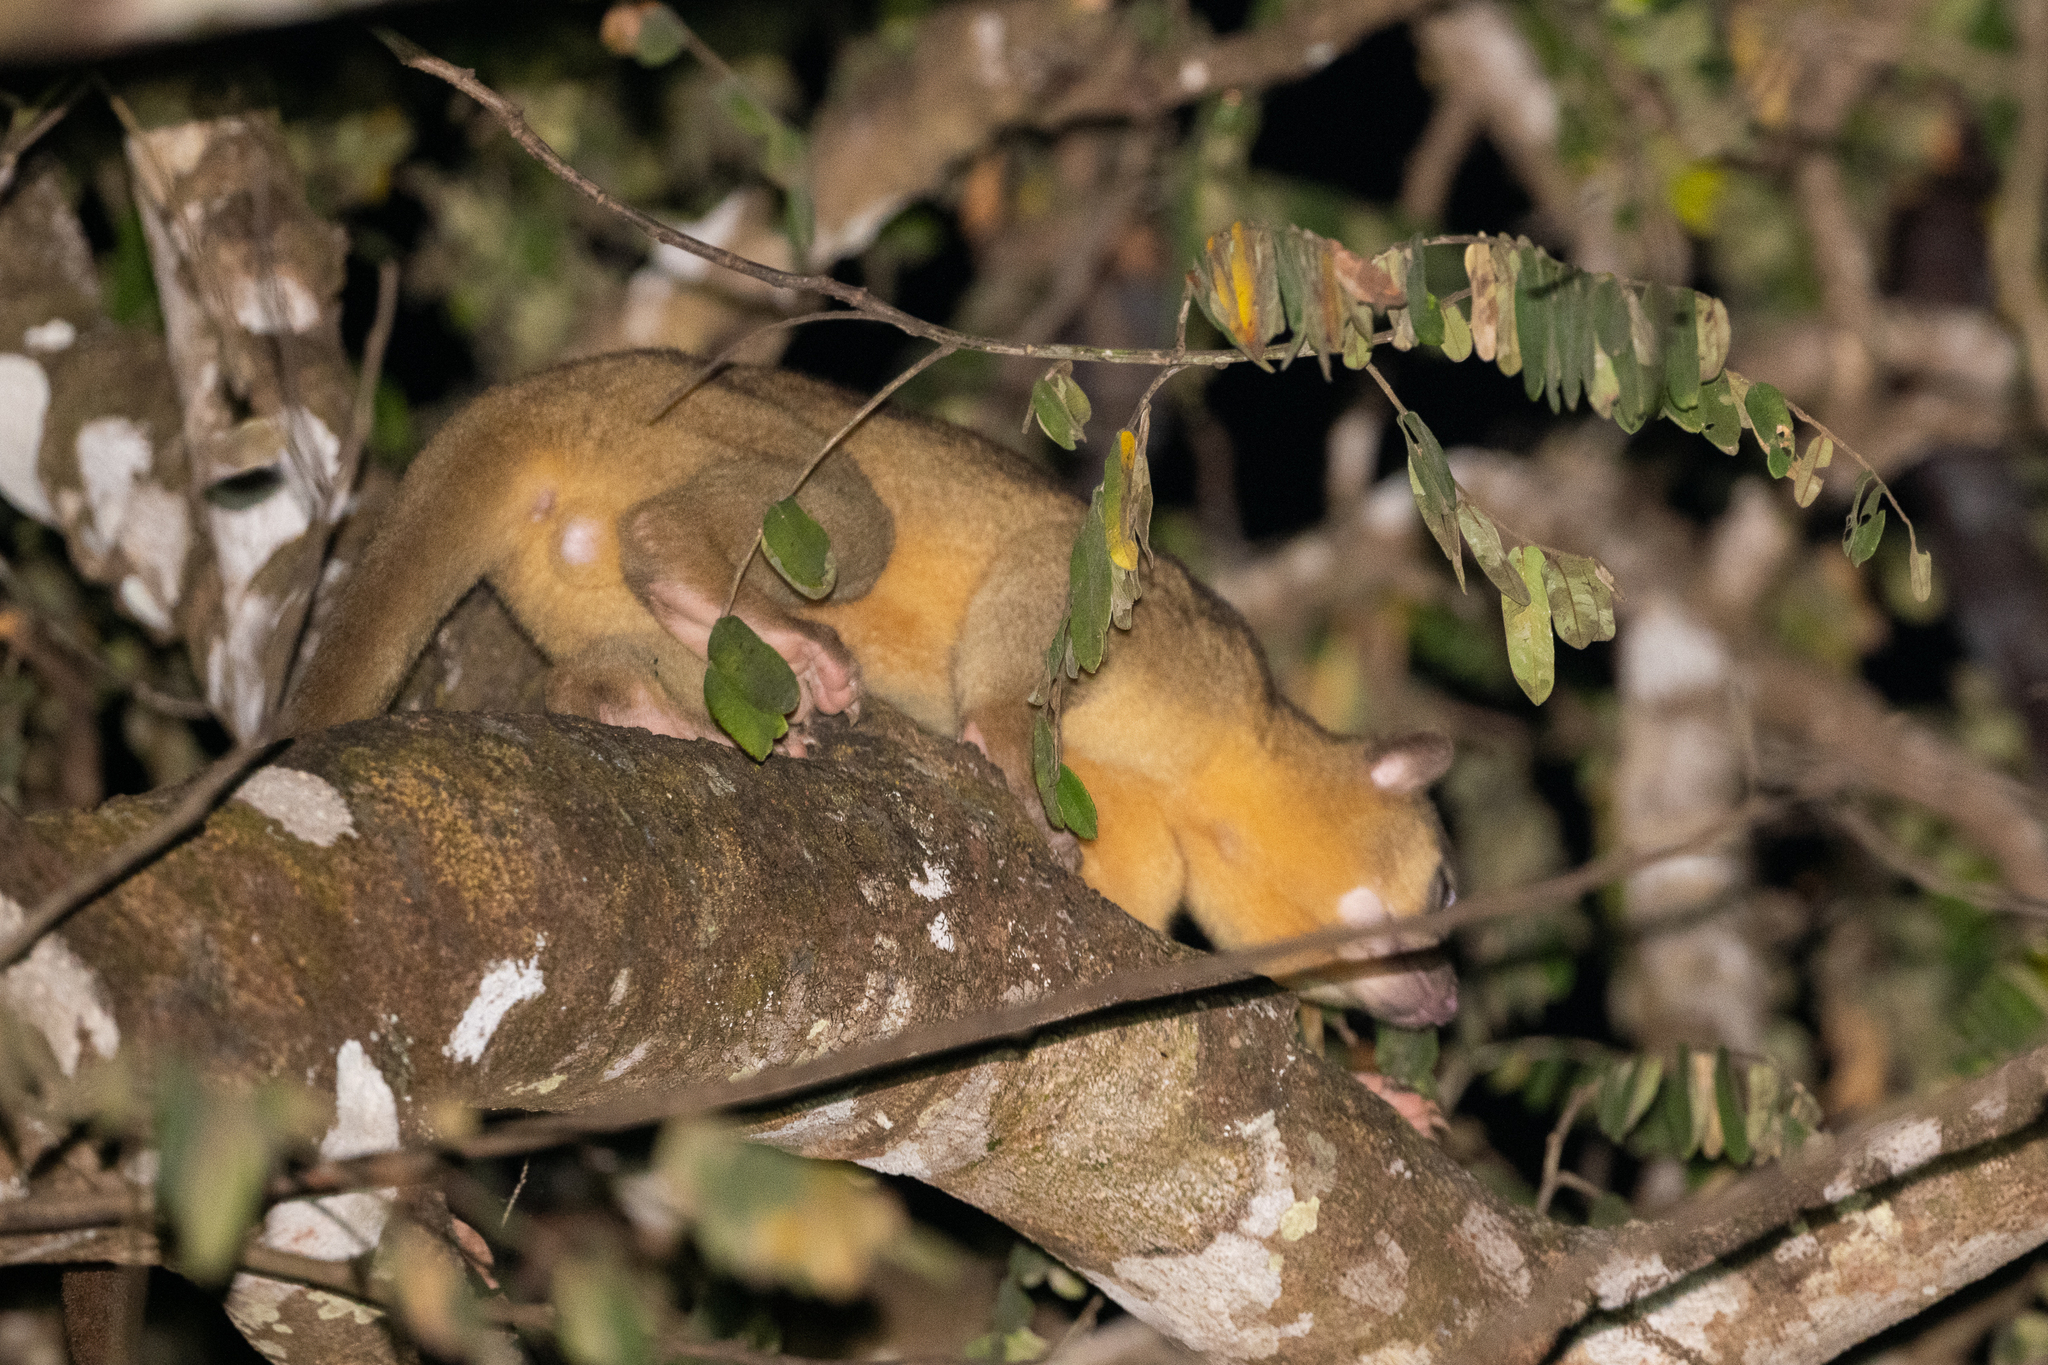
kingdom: Animalia
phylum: Chordata
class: Mammalia
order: Carnivora
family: Procyonidae
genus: Potos
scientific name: Potos flavus
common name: Kinkajou
